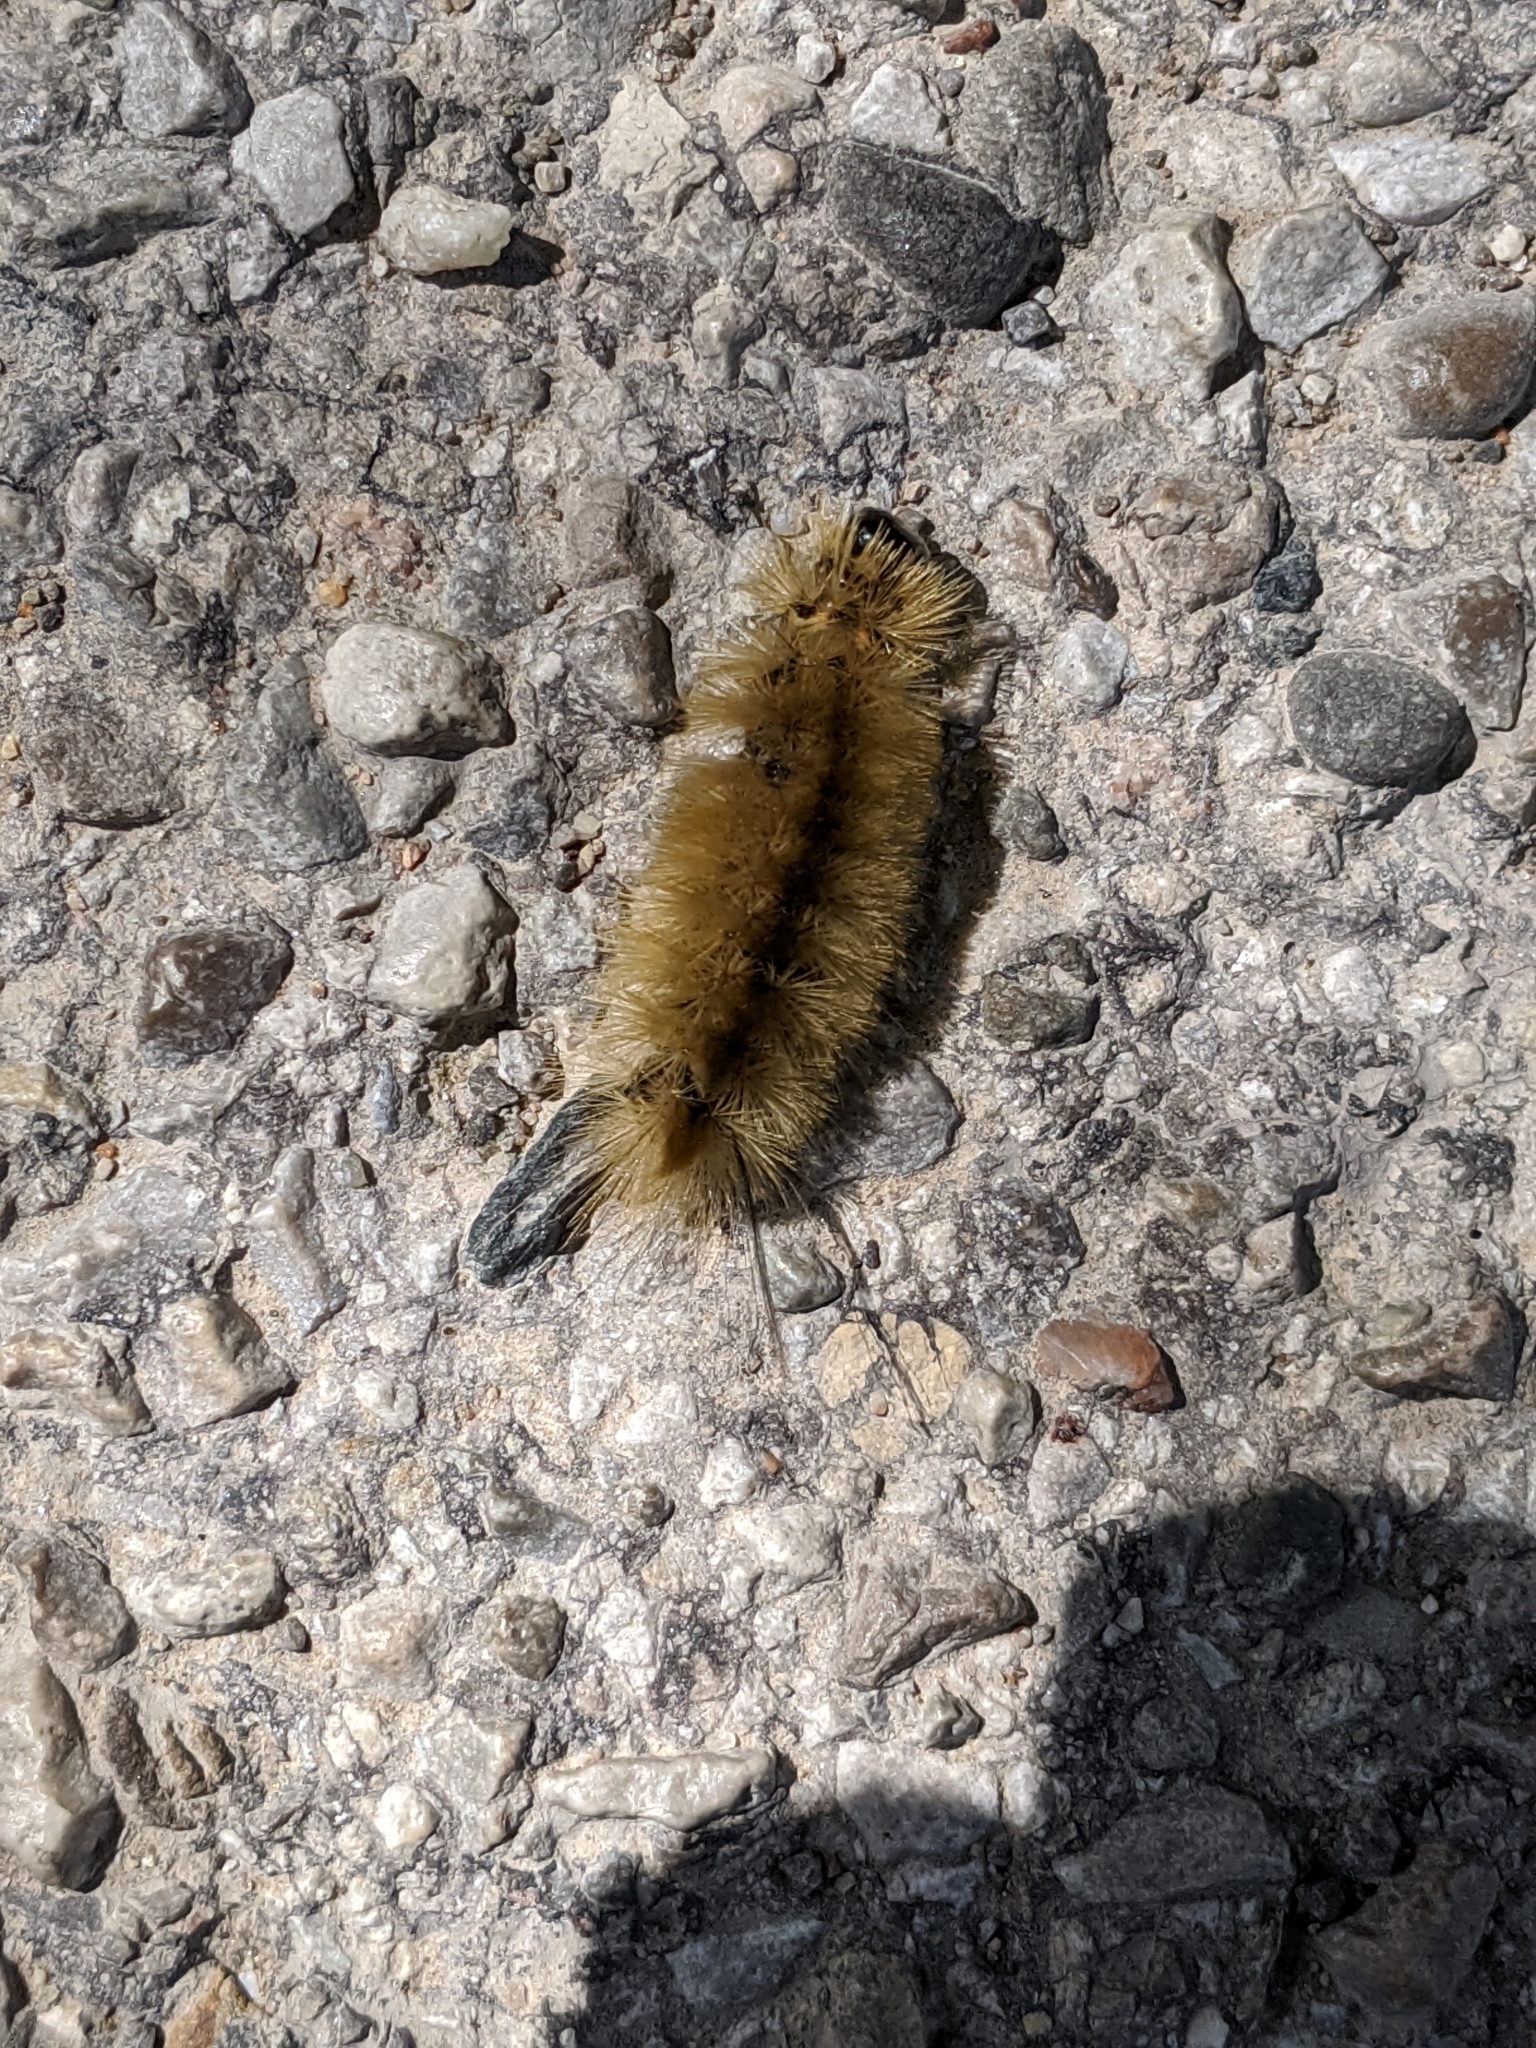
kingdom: Animalia
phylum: Arthropoda
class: Insecta
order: Lepidoptera
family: Erebidae
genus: Halysidota
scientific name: Halysidota tessellaris
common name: Banded tussock moth
